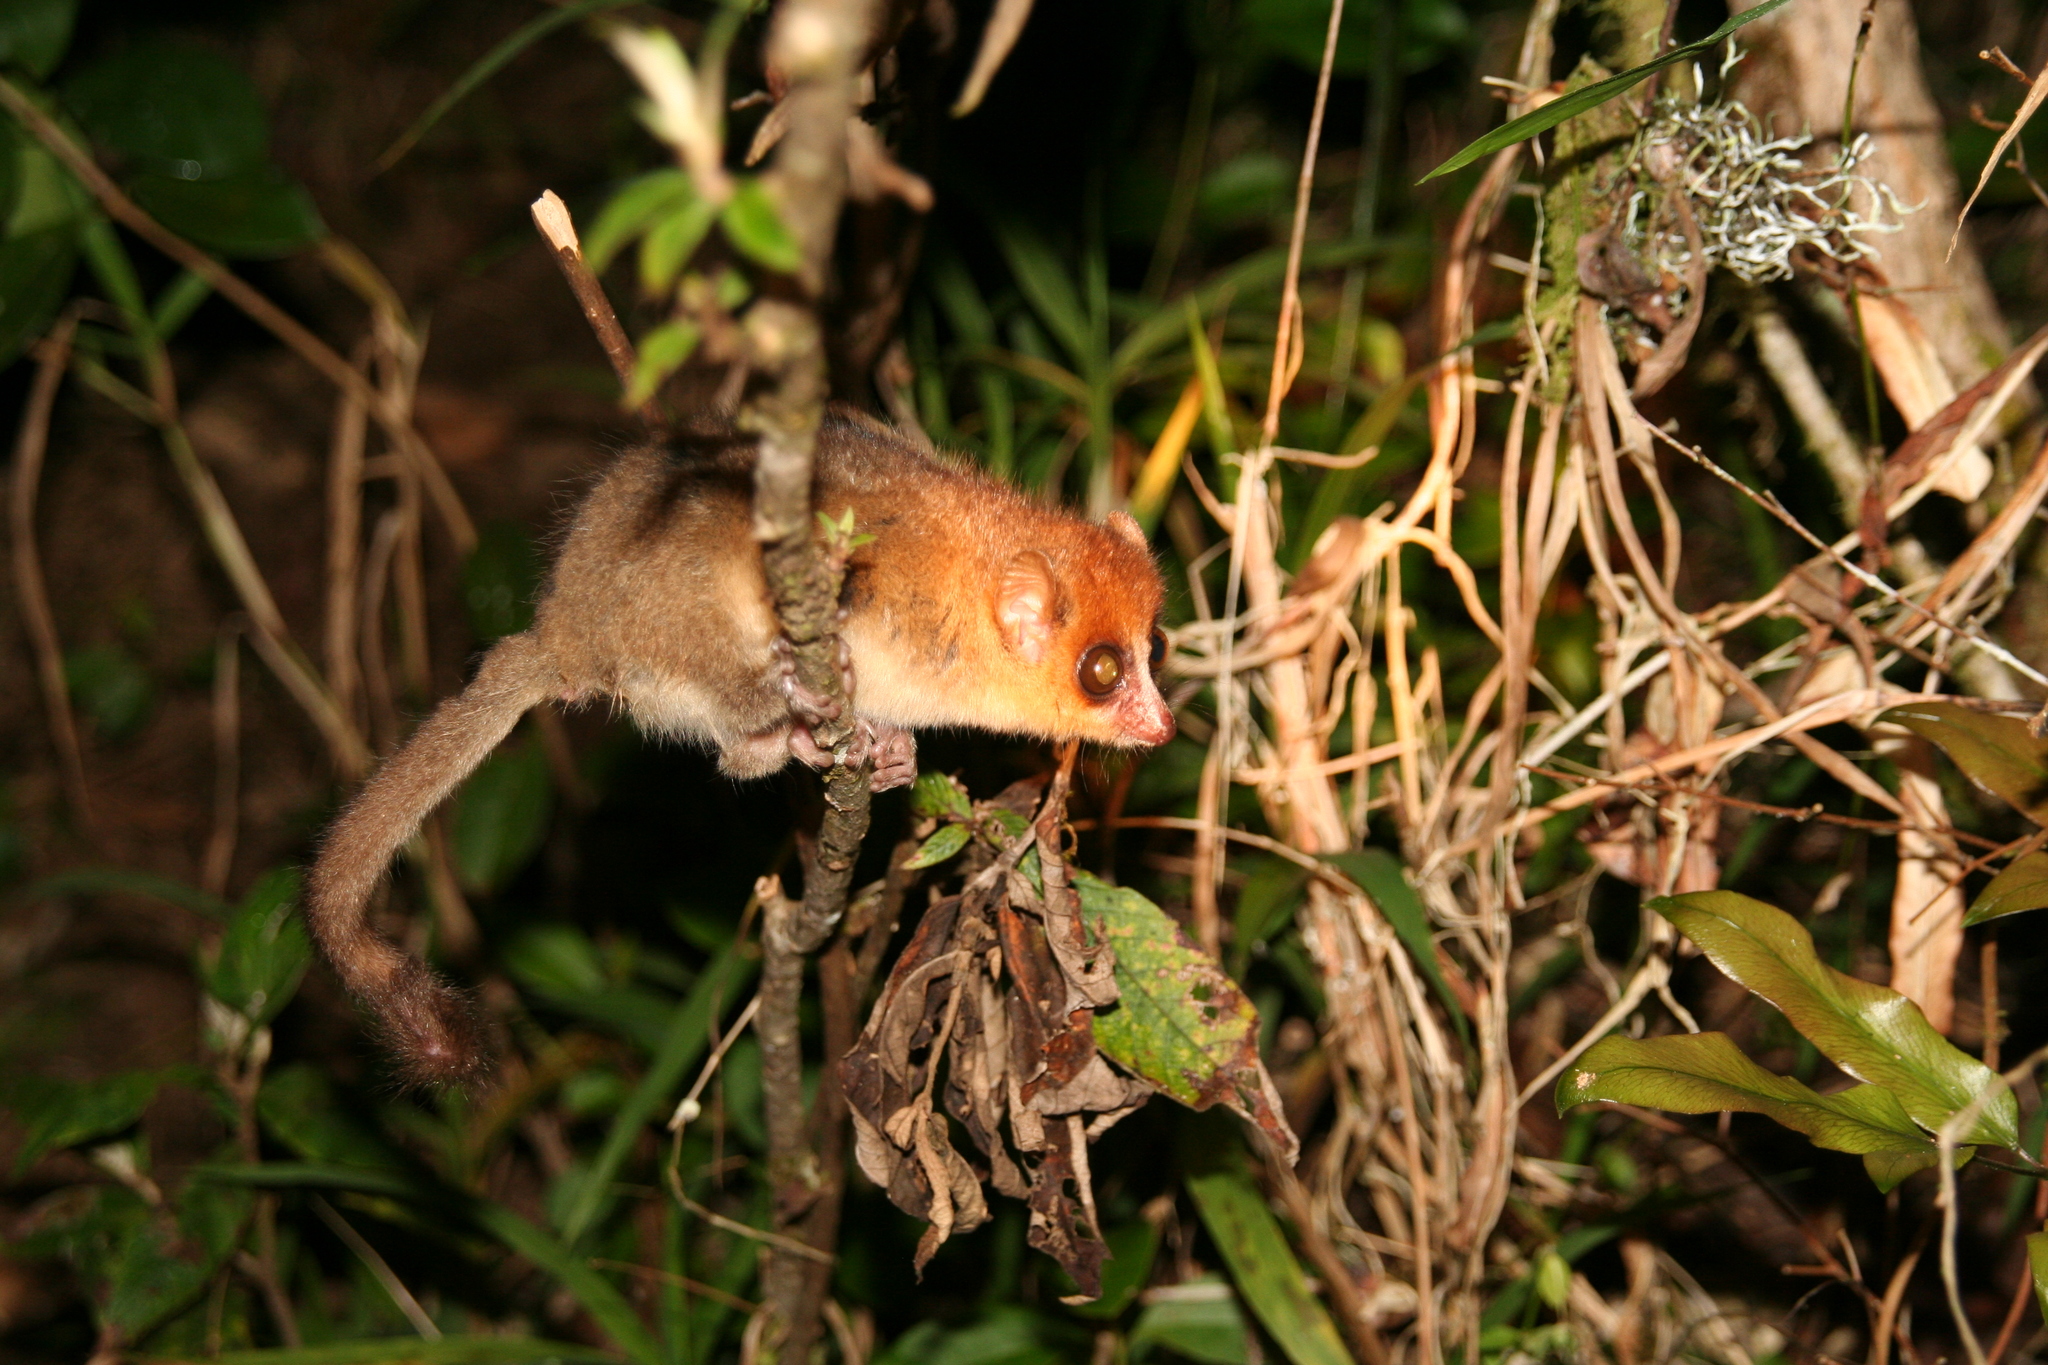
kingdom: Animalia
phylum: Chordata
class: Mammalia
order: Primates
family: Cheirogaleidae
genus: Microcebus
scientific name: Microcebus rufus
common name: Brown mouse lemur
